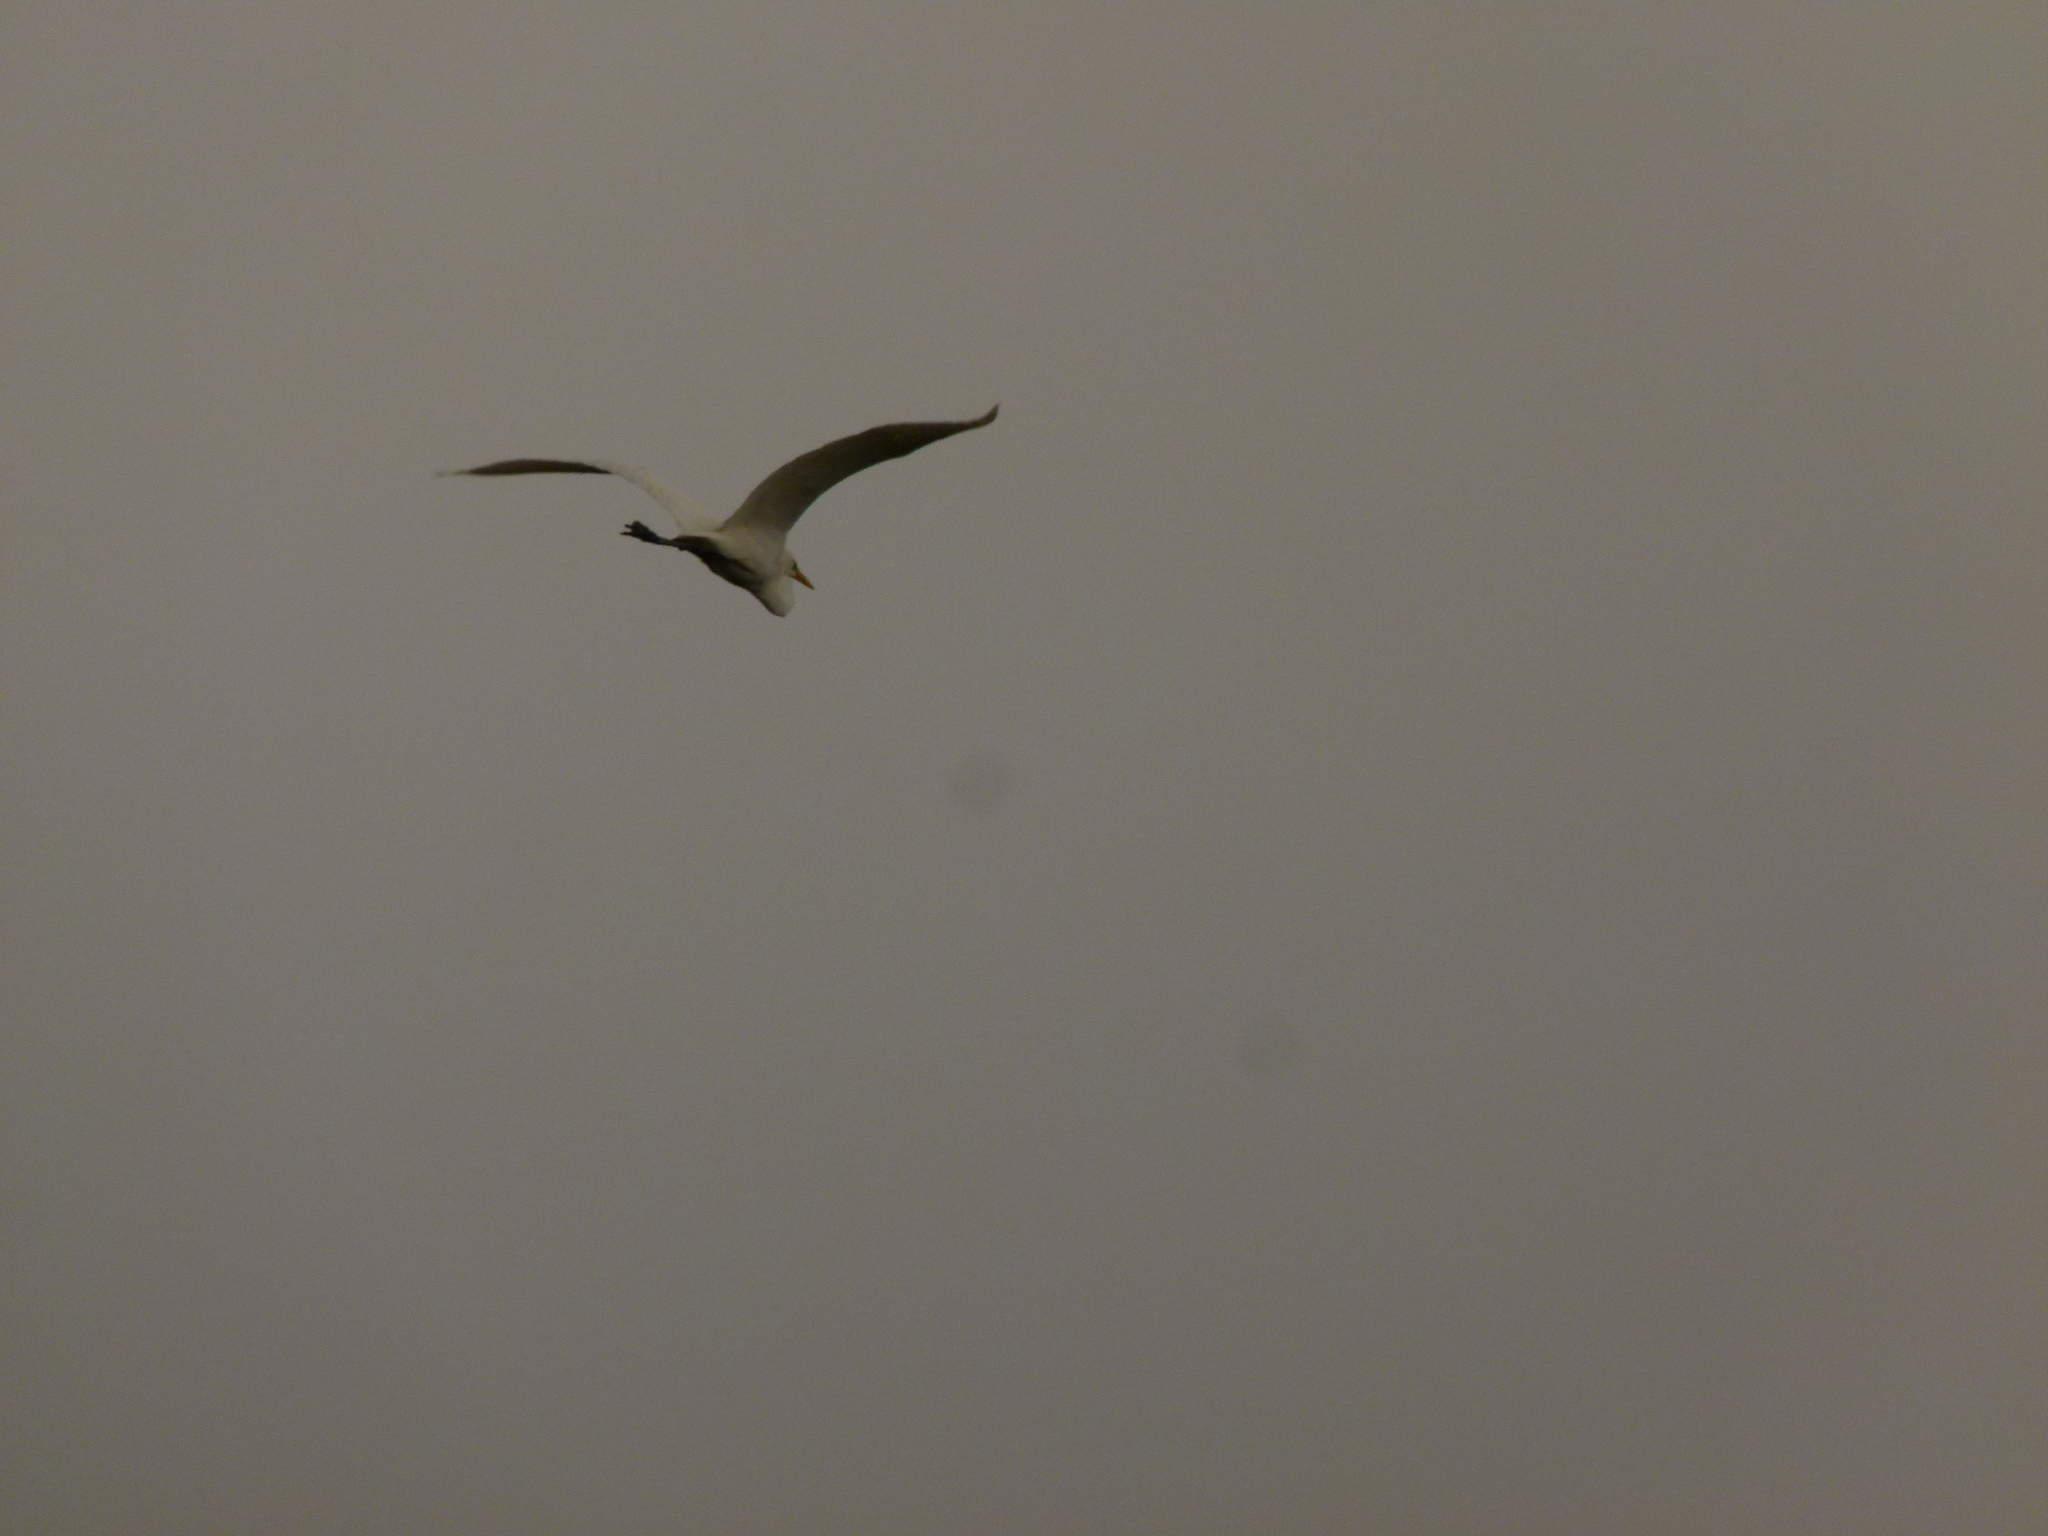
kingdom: Animalia
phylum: Chordata
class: Aves
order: Pelecaniformes
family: Ardeidae
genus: Ardea
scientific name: Ardea alba
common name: Great egret
